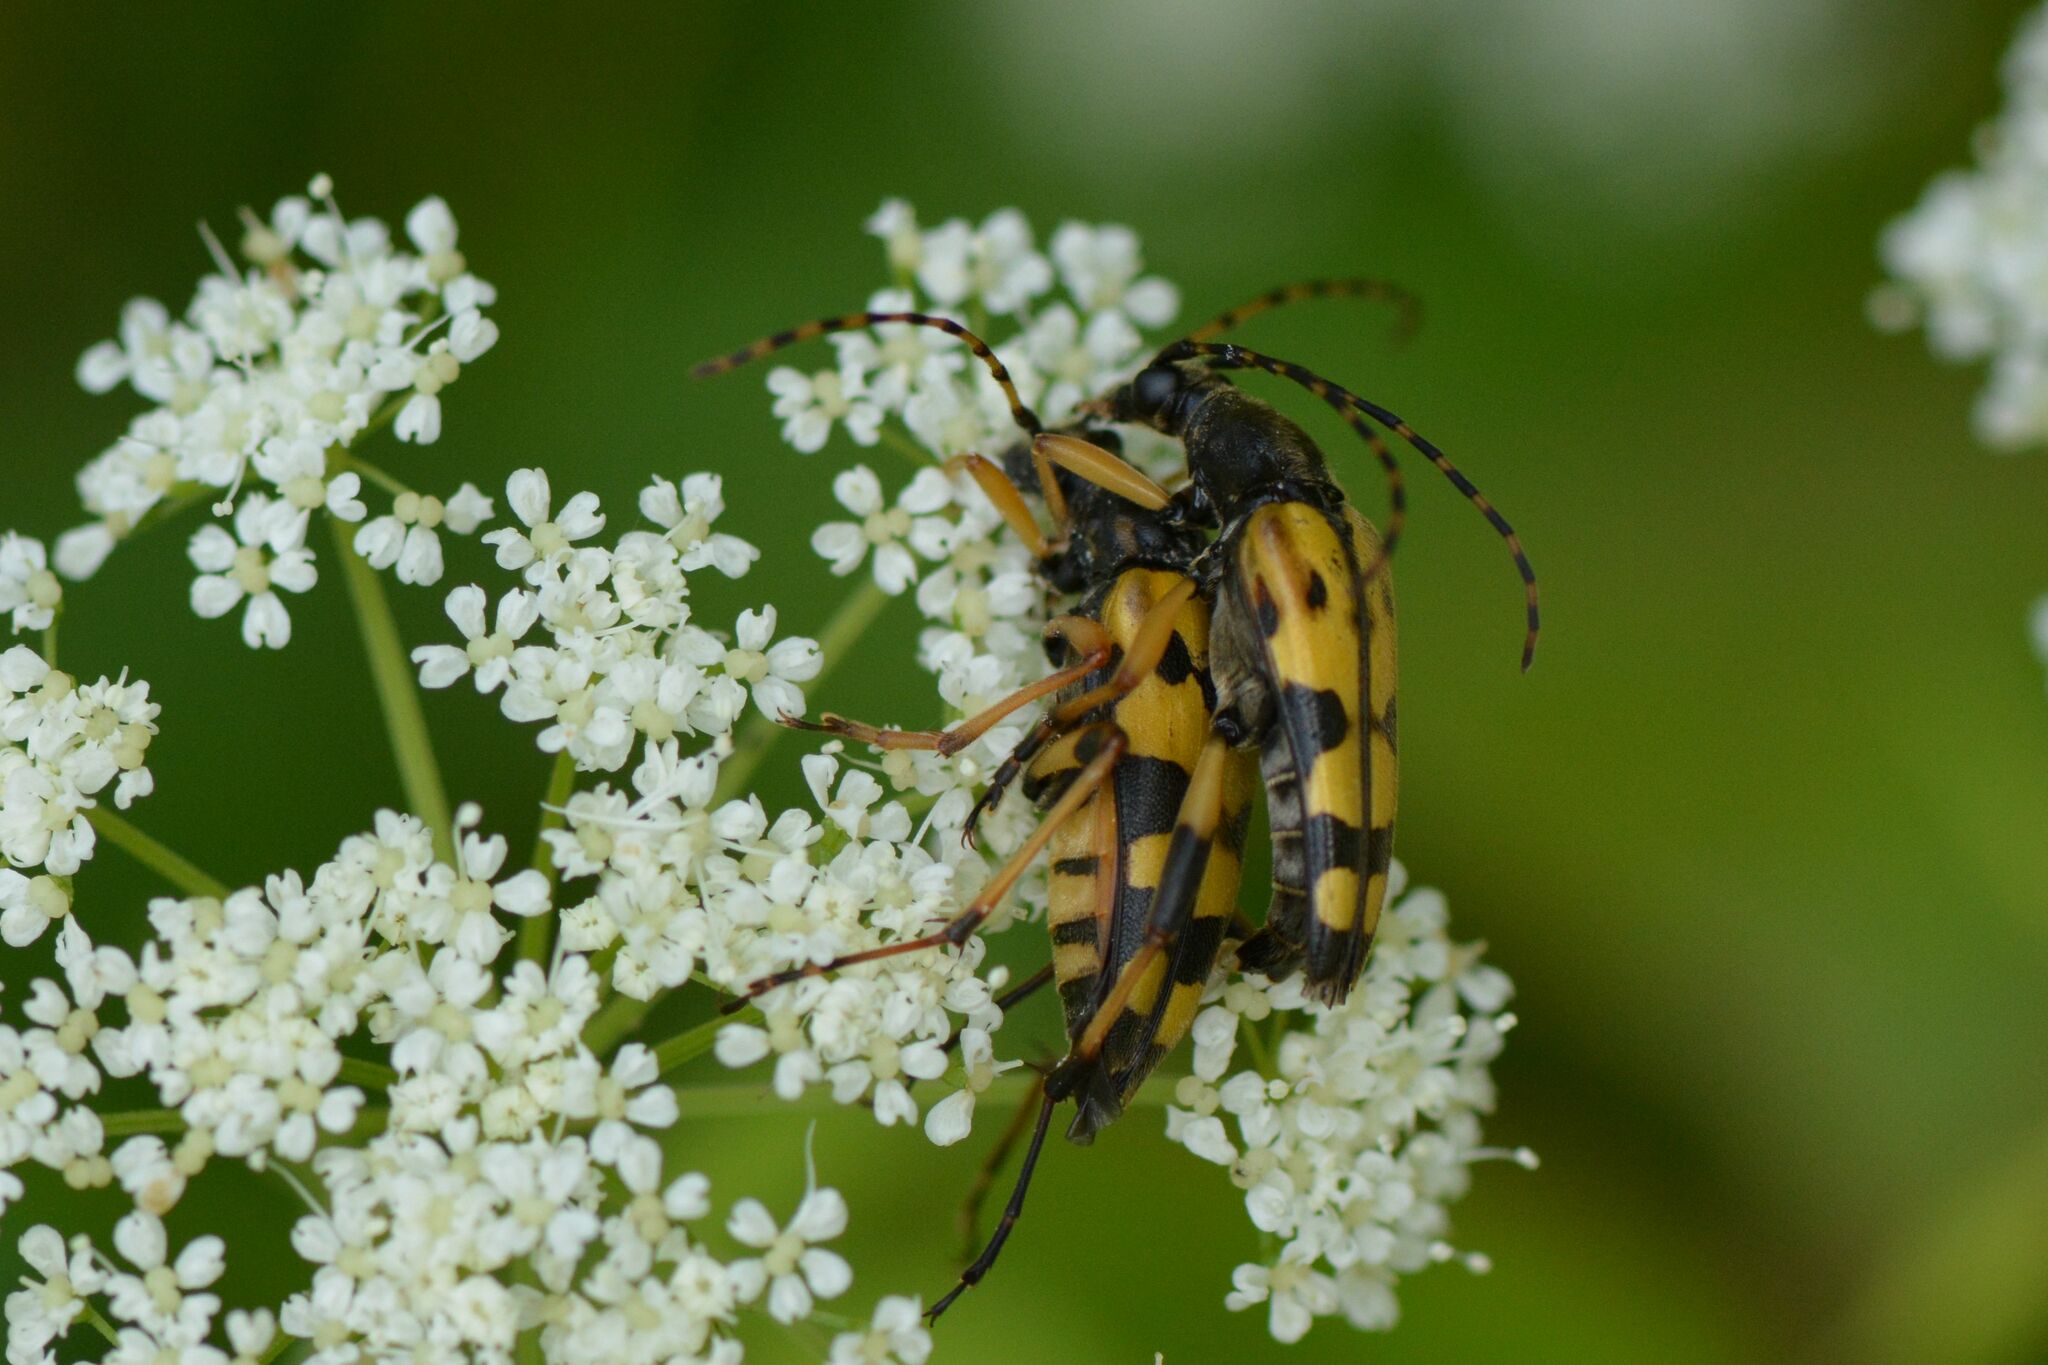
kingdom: Animalia
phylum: Arthropoda
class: Insecta
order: Coleoptera
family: Cerambycidae
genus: Rutpela
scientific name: Rutpela maculata
